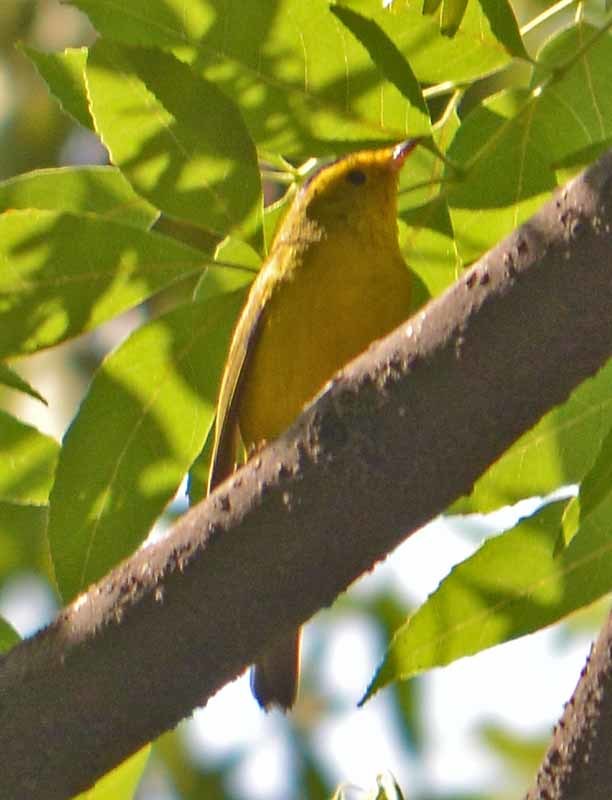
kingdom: Animalia
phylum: Chordata
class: Aves
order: Passeriformes
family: Parulidae
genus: Cardellina
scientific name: Cardellina pusilla
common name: Wilson's warbler
